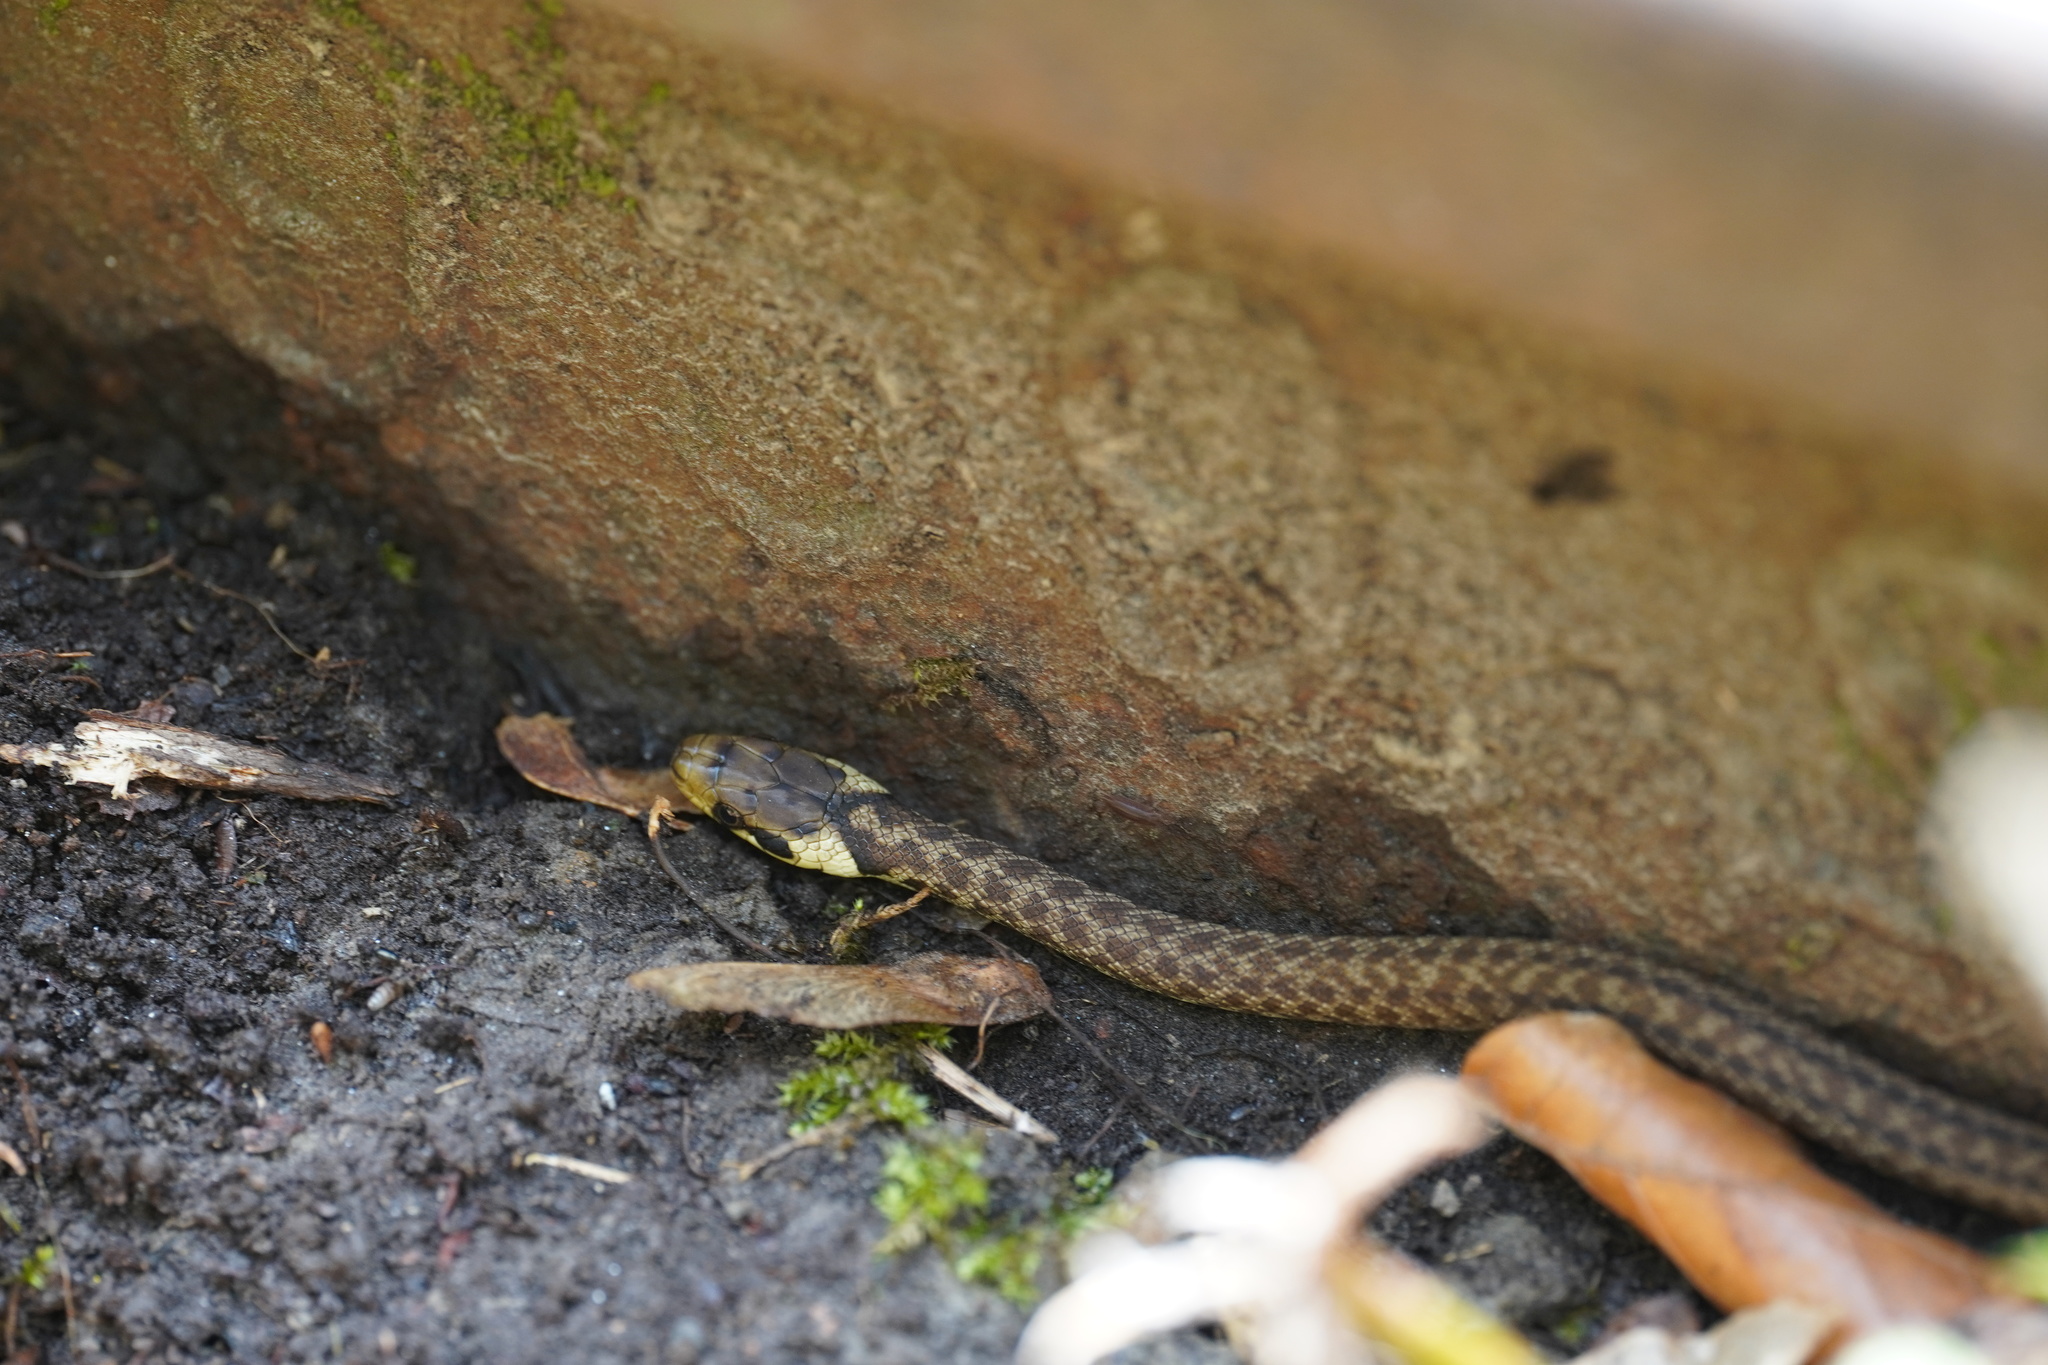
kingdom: Animalia
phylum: Chordata
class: Squamata
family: Colubridae
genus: Zamenis
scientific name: Zamenis longissimus
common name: Aesculapean snake
